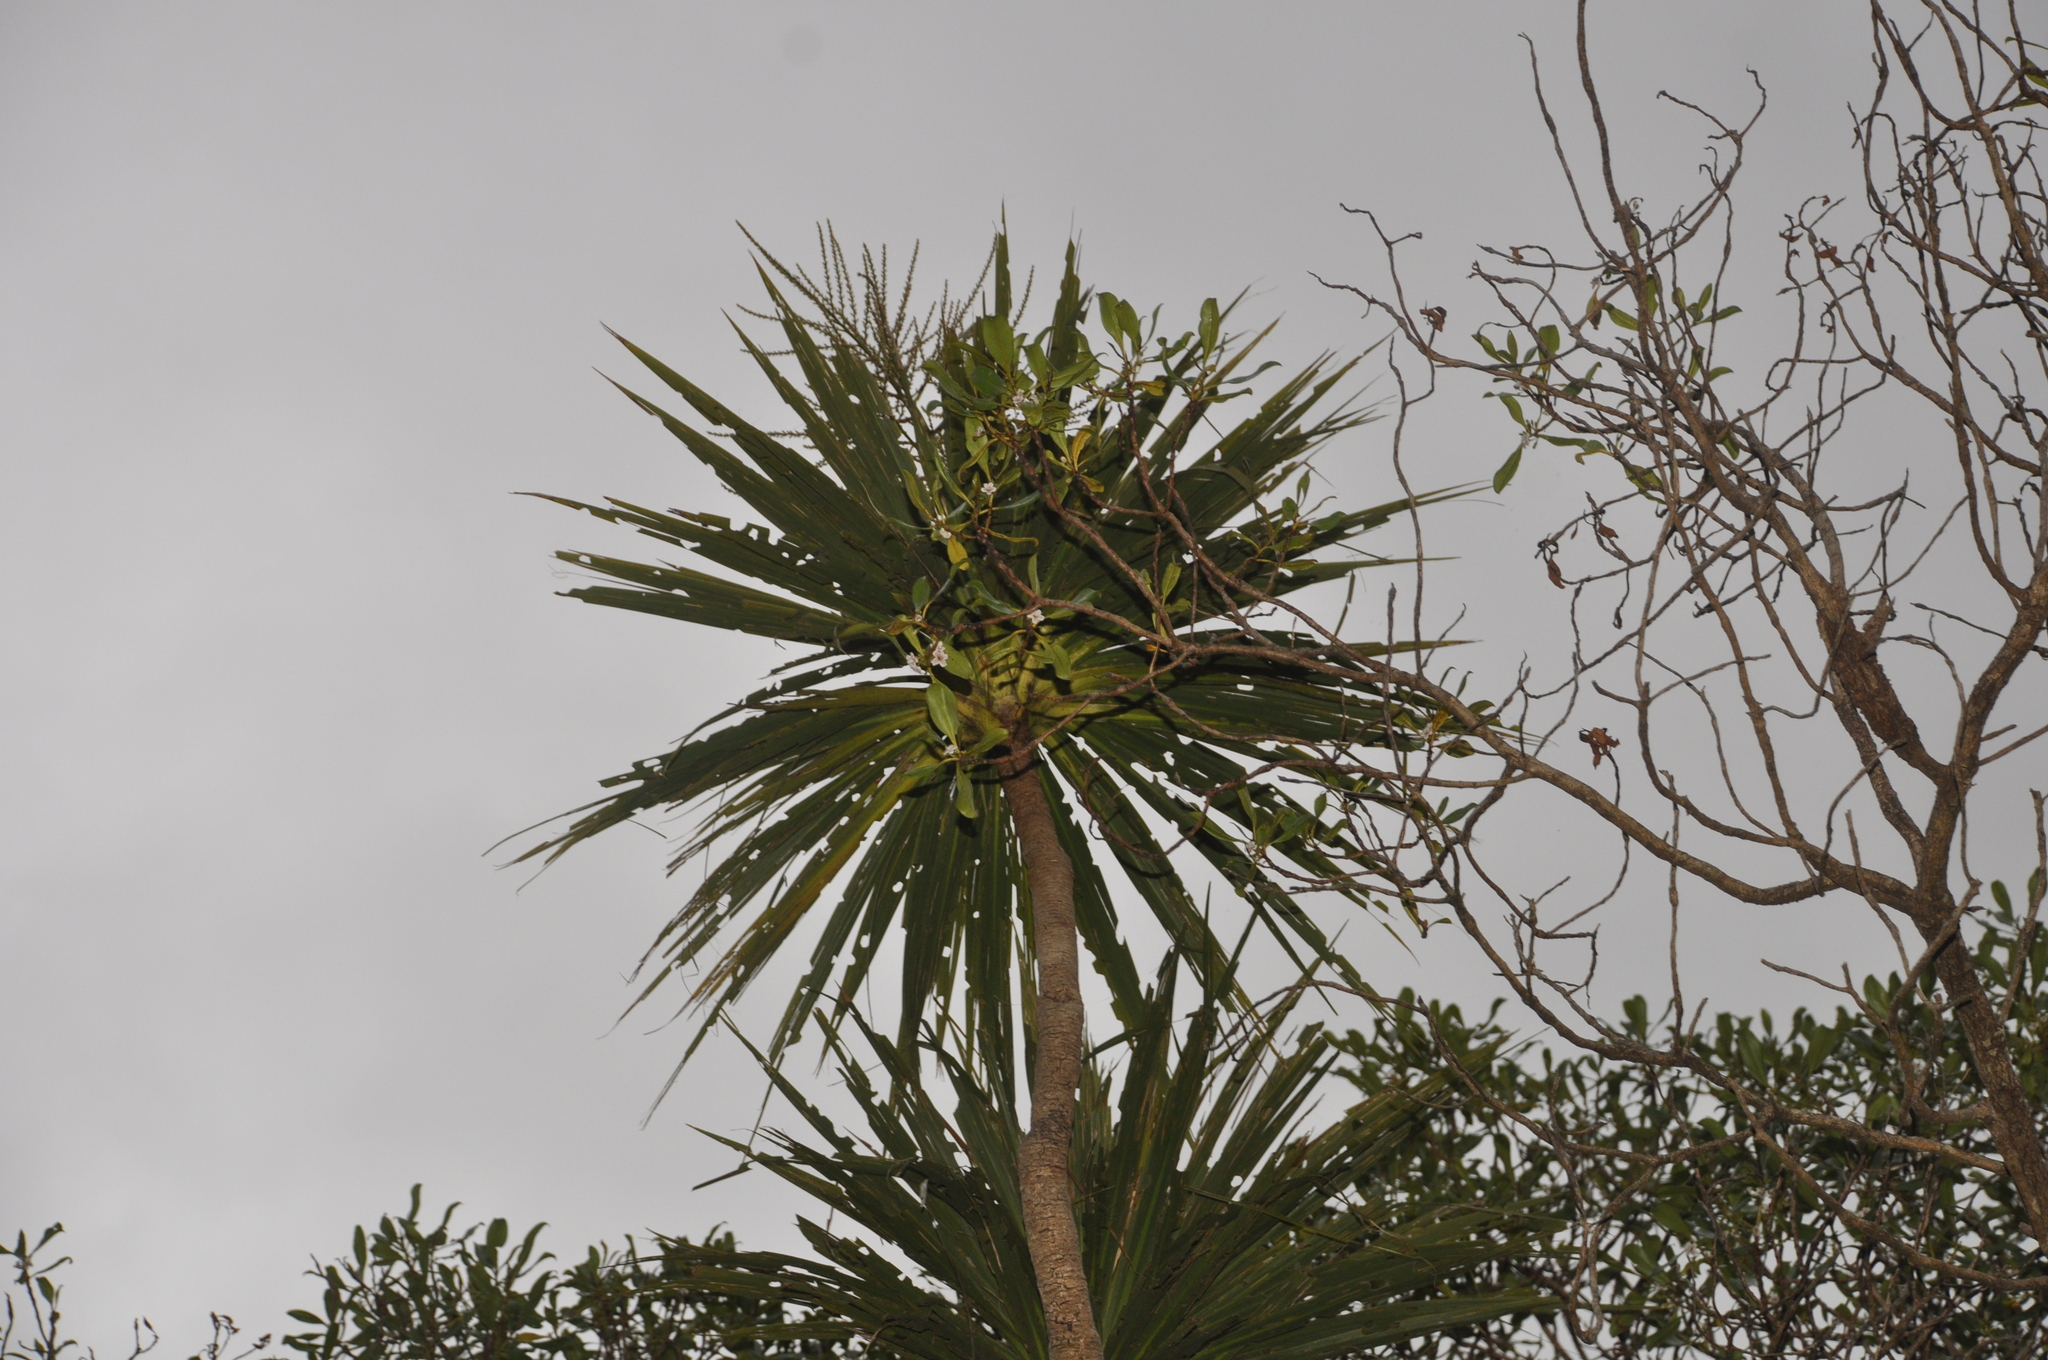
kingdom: Plantae
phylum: Tracheophyta
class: Liliopsida
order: Asparagales
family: Asparagaceae
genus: Cordyline
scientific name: Cordyline australis
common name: Cabbage-palm
